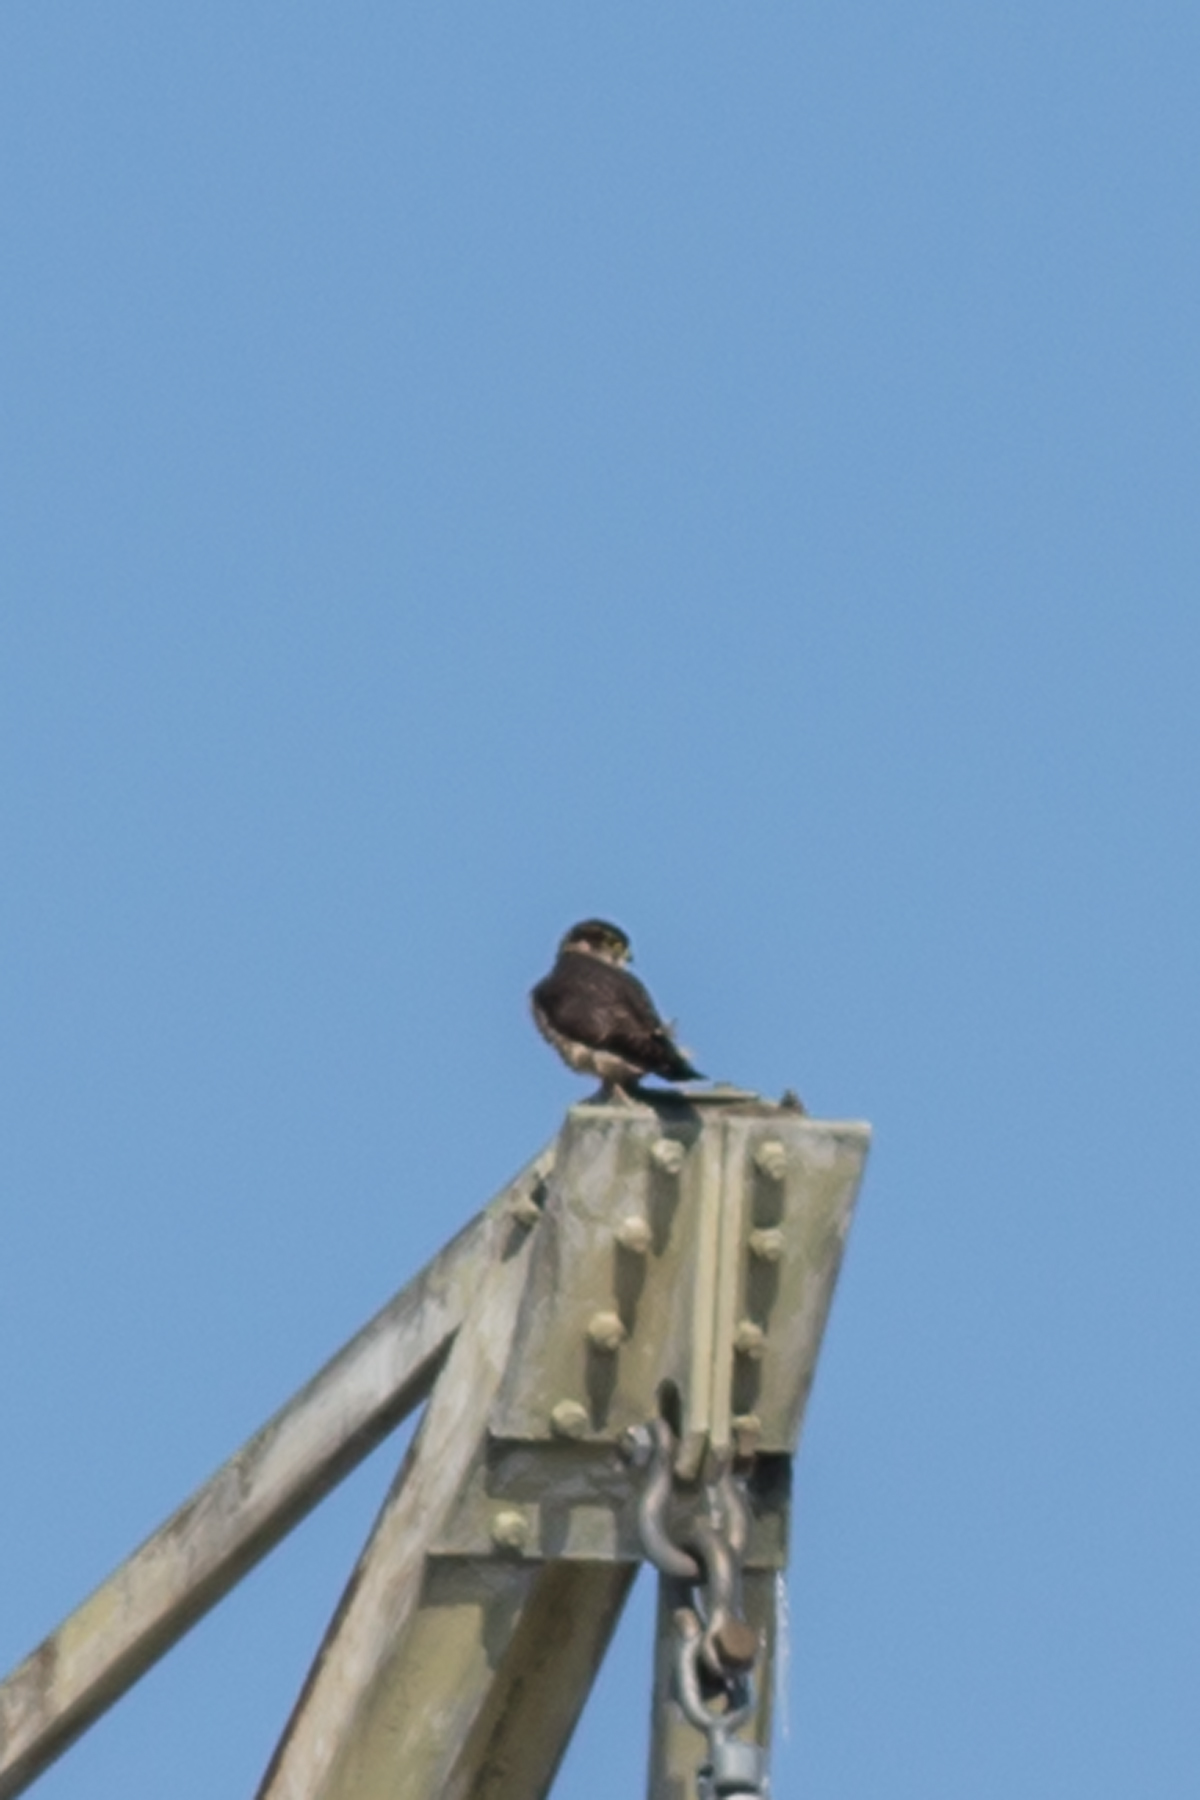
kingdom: Animalia
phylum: Chordata
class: Aves
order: Falconiformes
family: Falconidae
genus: Falco
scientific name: Falco columbarius
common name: Merlin
